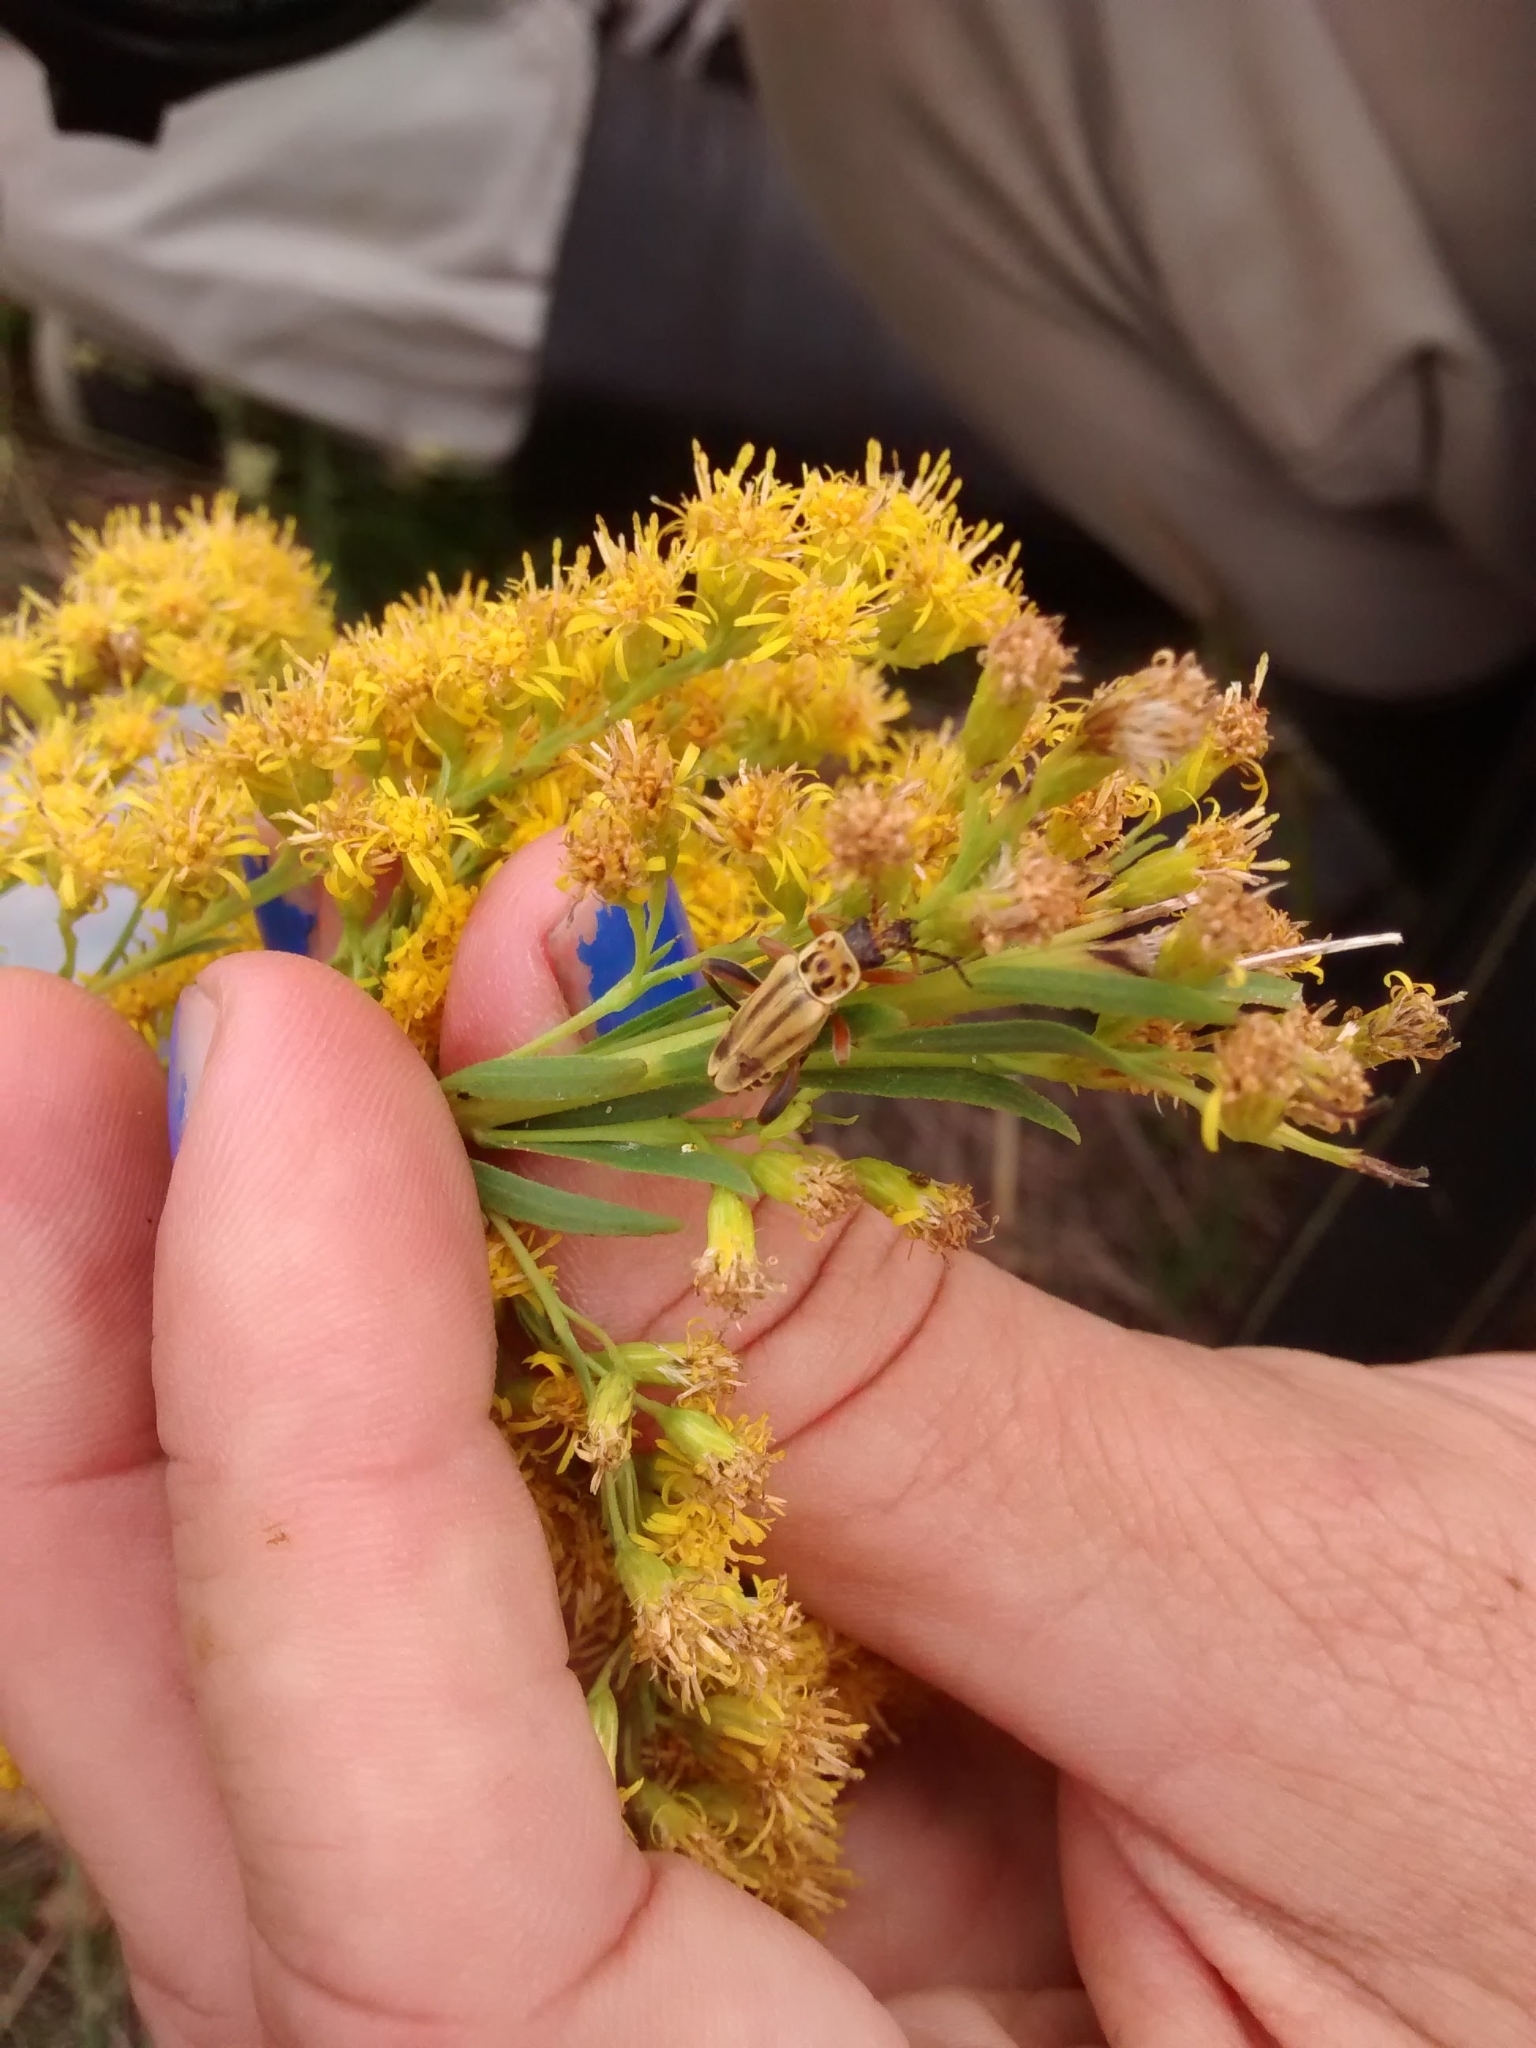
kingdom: Animalia
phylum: Arthropoda
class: Insecta
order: Coleoptera
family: Cantharidae
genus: Chauliognathus
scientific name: Chauliognathus
